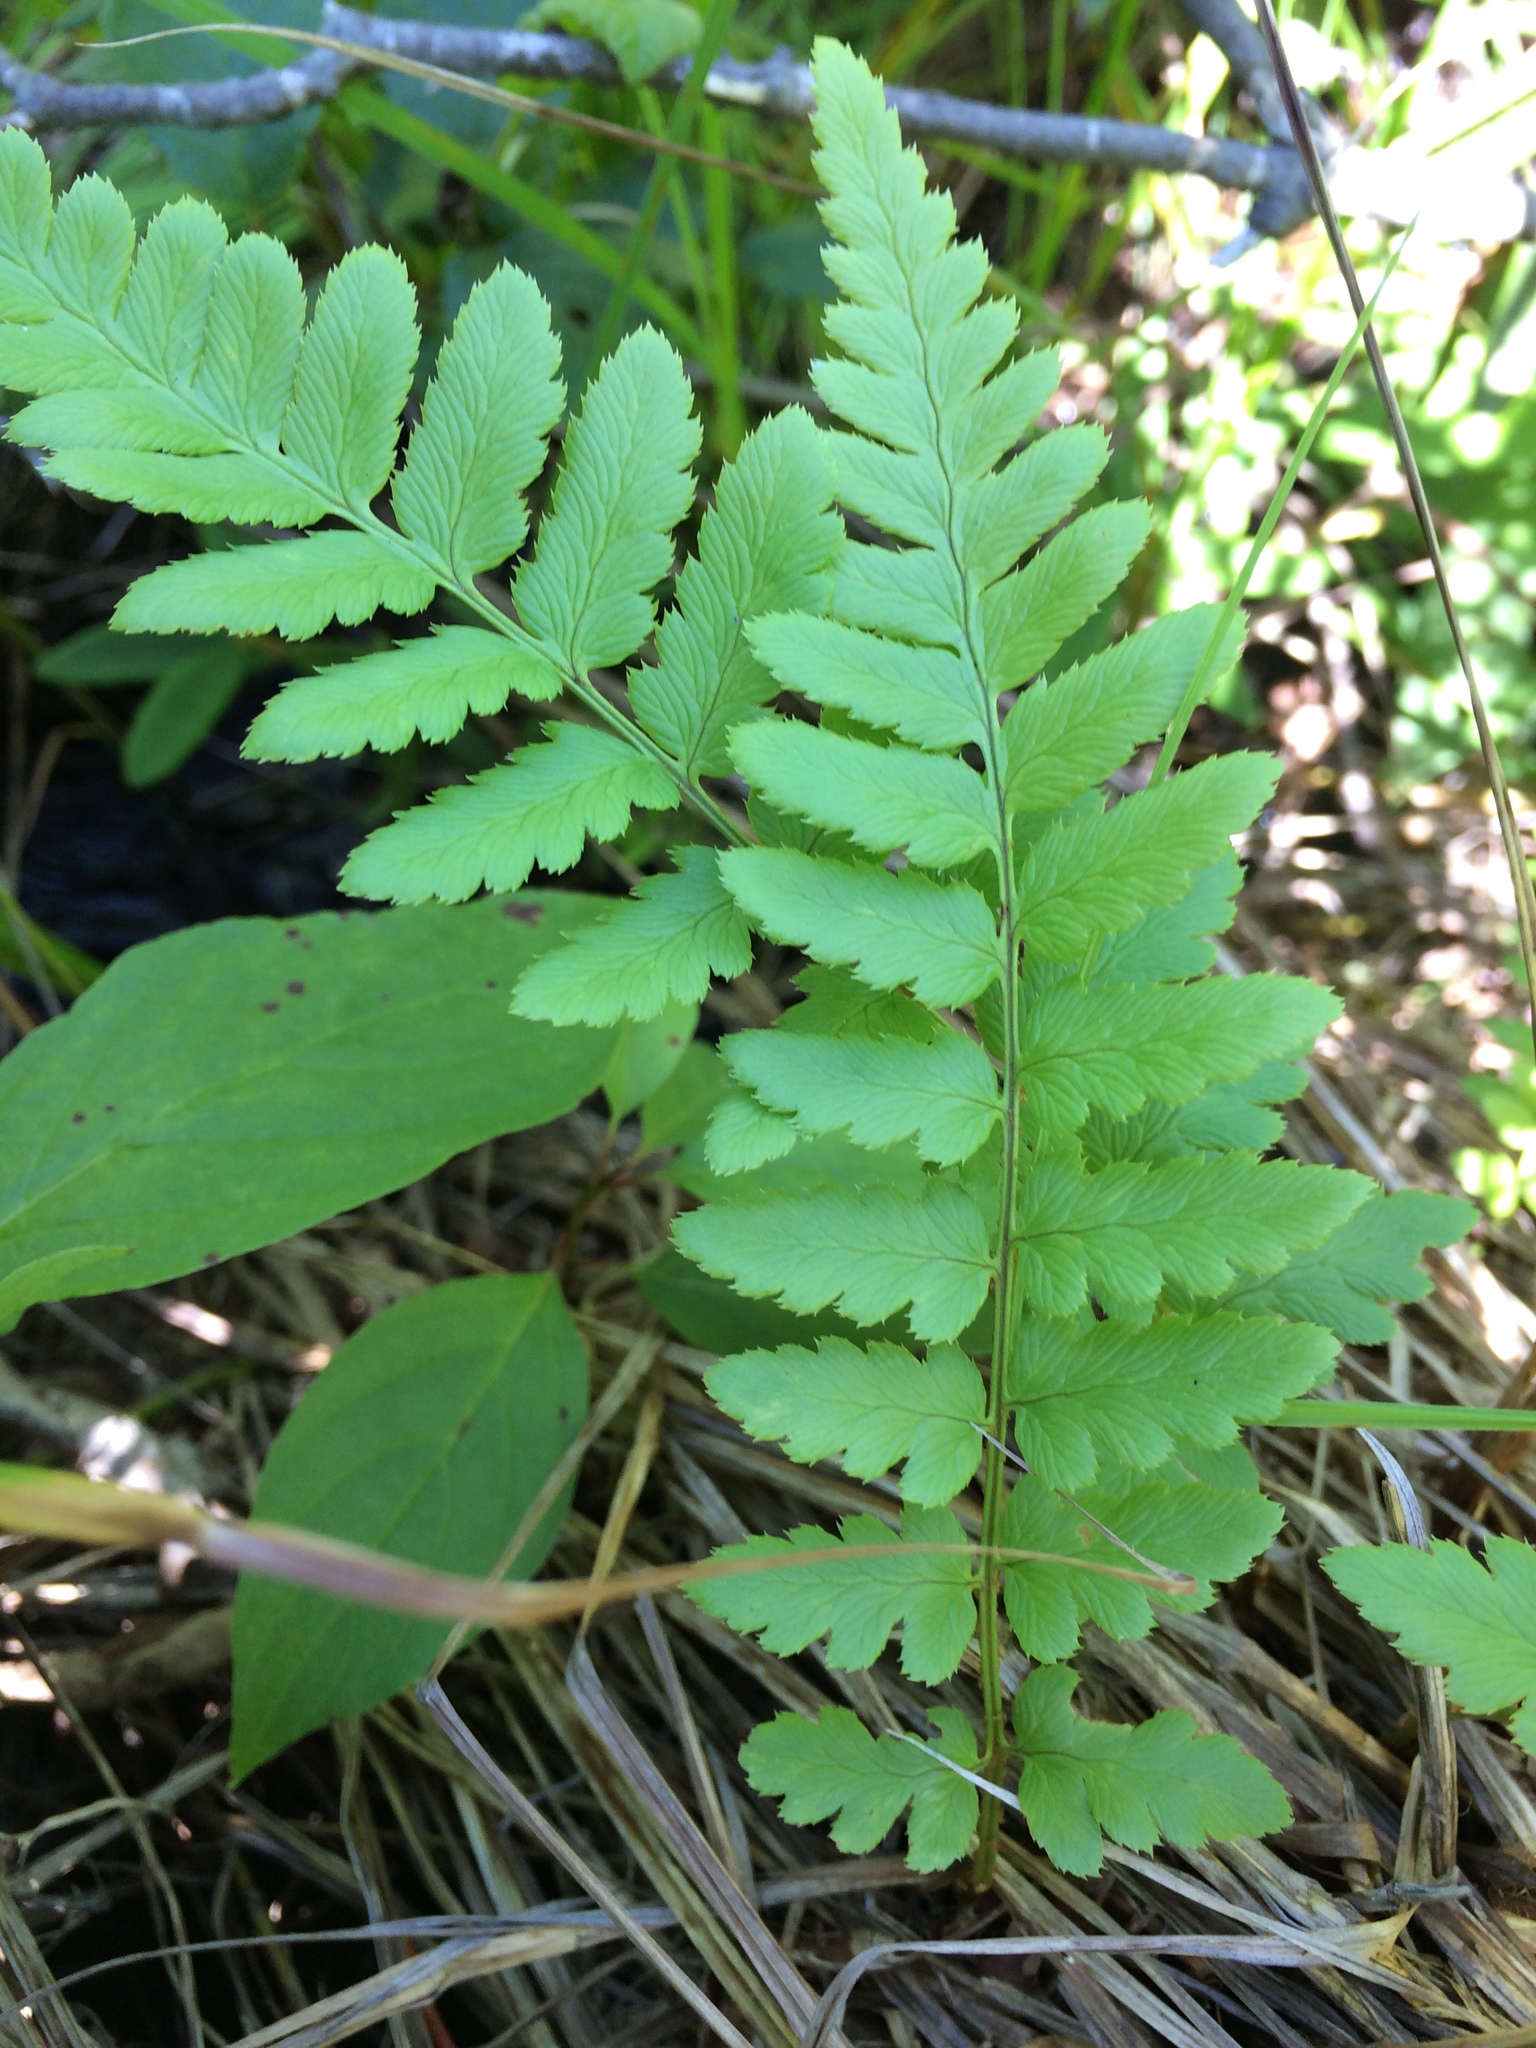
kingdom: Plantae
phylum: Tracheophyta
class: Polypodiopsida
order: Polypodiales
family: Dryopteridaceae
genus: Dryopteris
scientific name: Dryopteris cristata
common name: Crested wood fern
